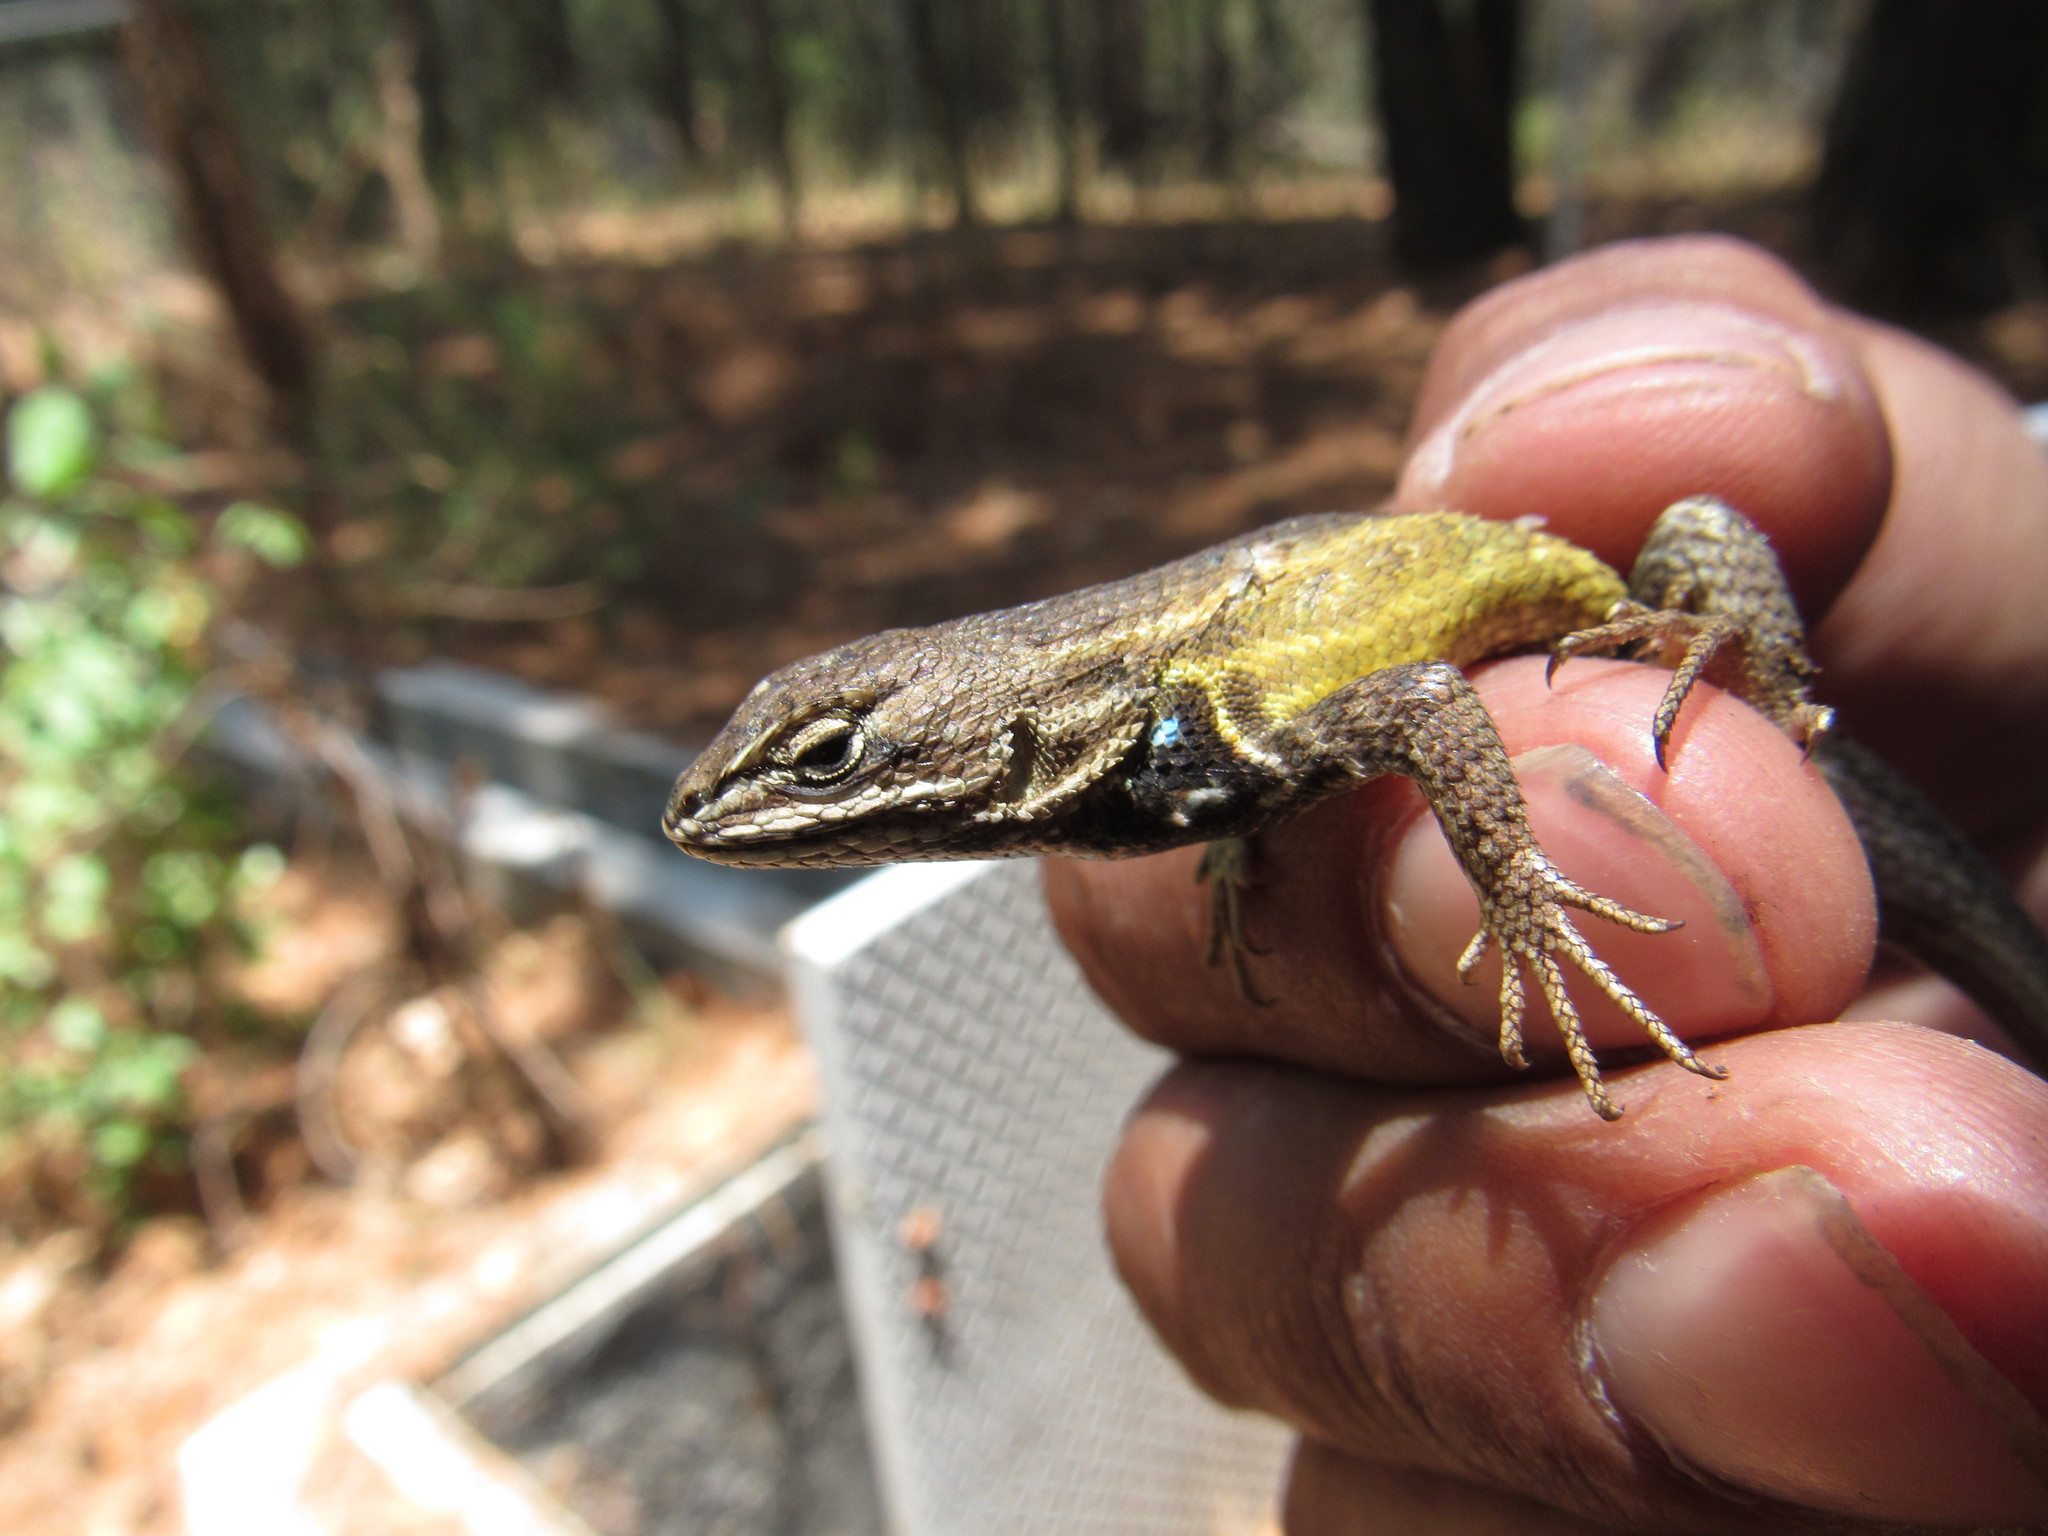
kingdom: Animalia
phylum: Chordata
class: Squamata
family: Phrynosomatidae
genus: Sceloporus
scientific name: Sceloporus subniger
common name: Plateau bunchgrass lizard
